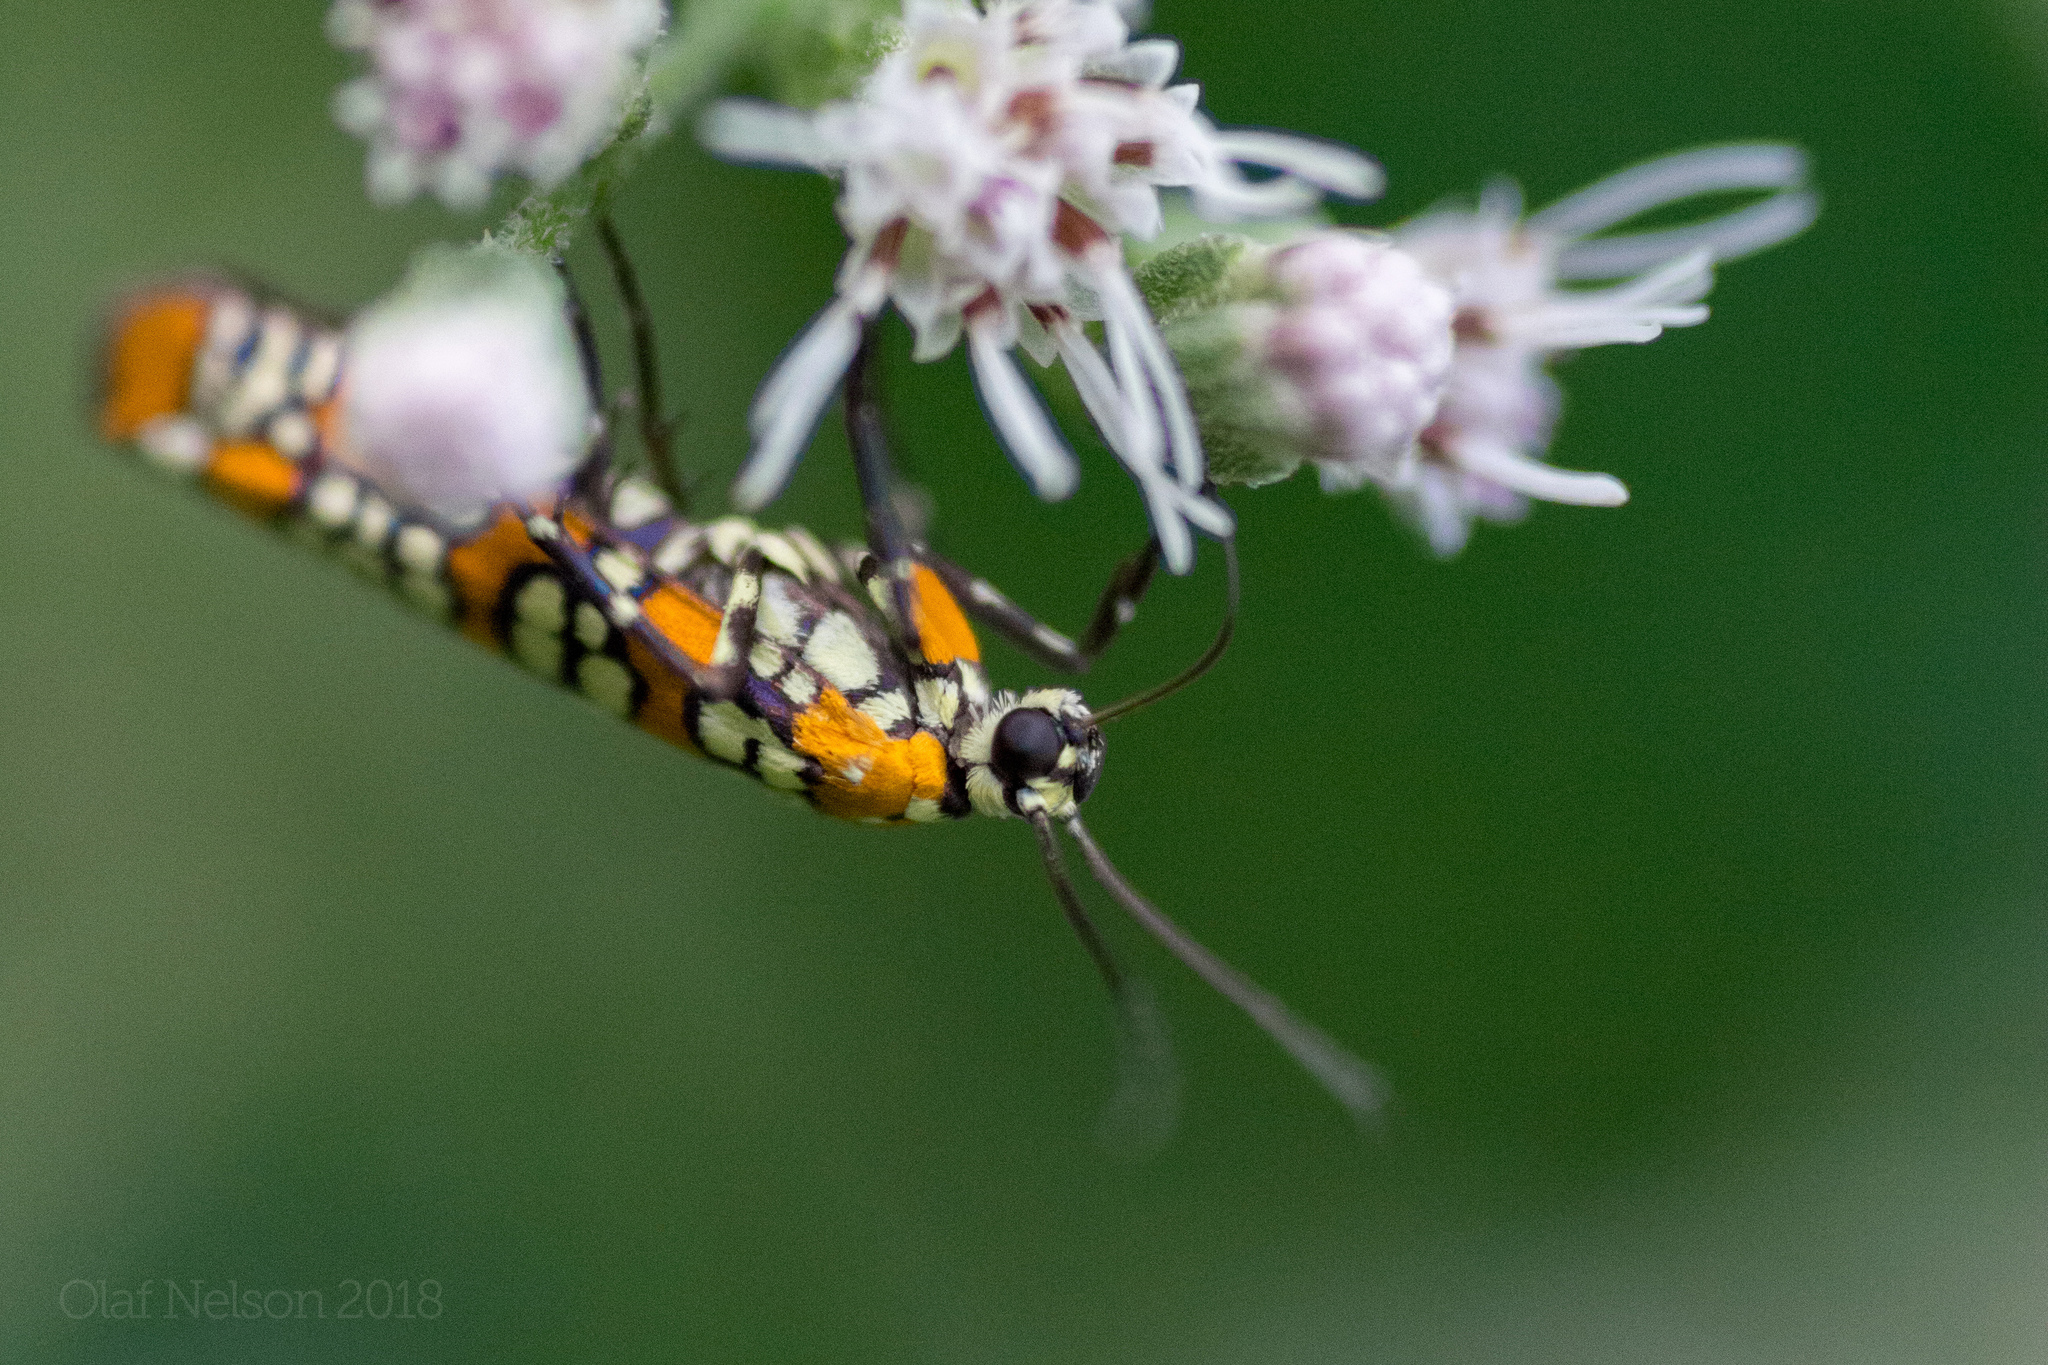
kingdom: Animalia
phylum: Arthropoda
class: Insecta
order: Lepidoptera
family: Attevidae
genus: Atteva
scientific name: Atteva punctella
